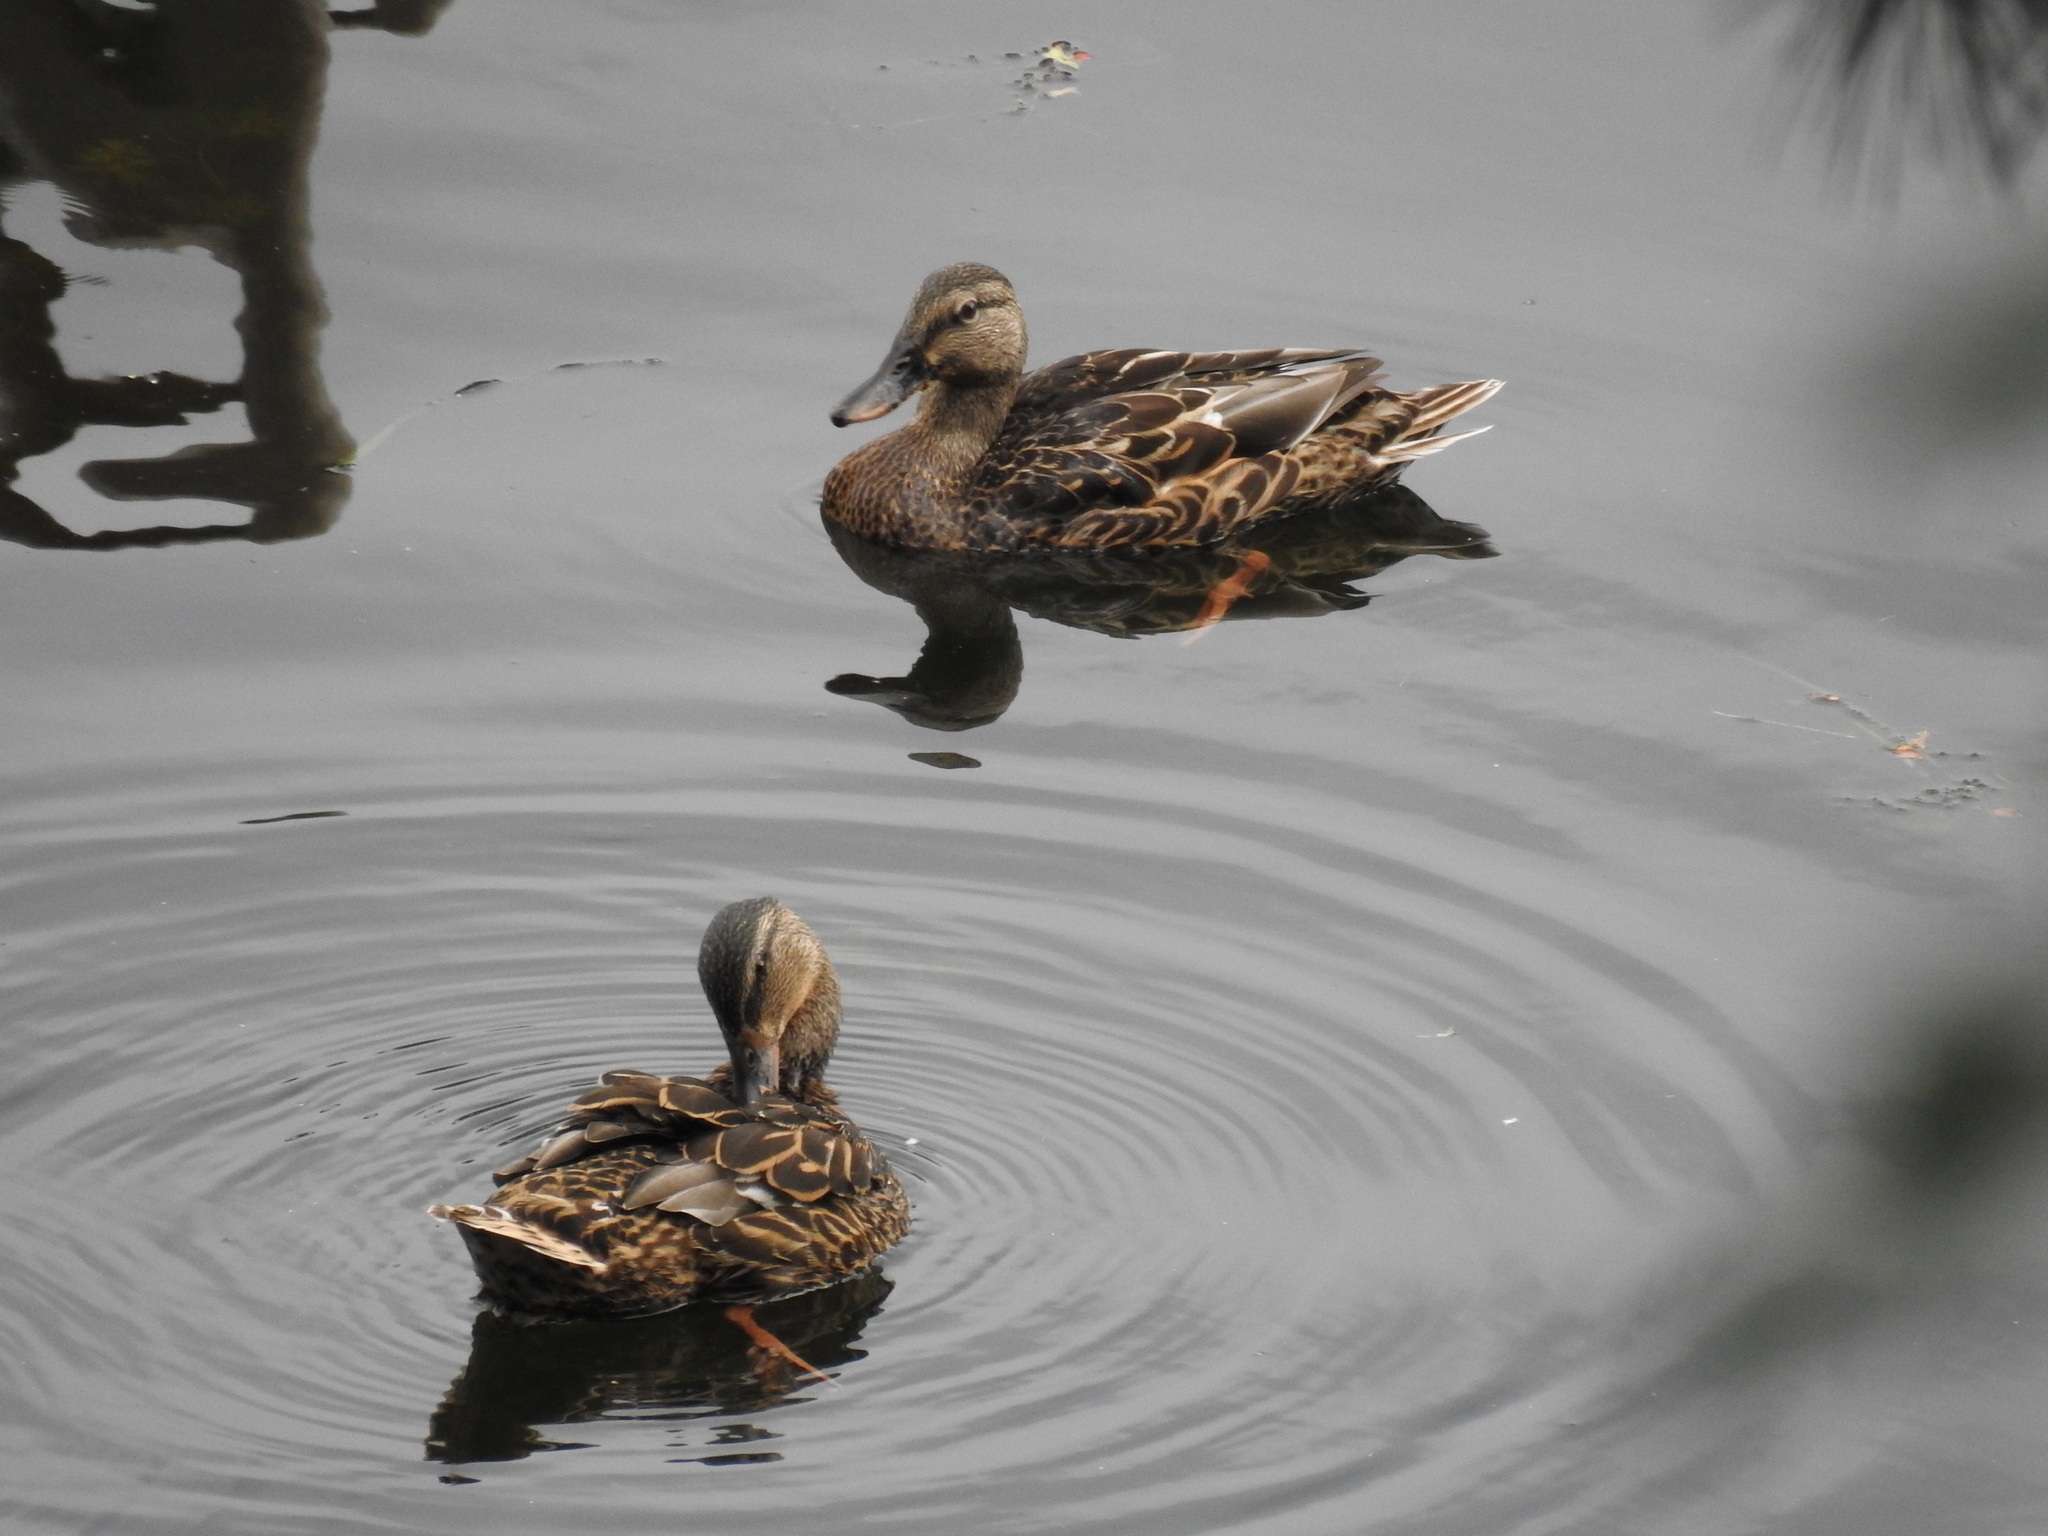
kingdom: Animalia
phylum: Chordata
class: Aves
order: Anseriformes
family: Anatidae
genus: Anas
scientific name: Anas platyrhynchos
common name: Mallard
